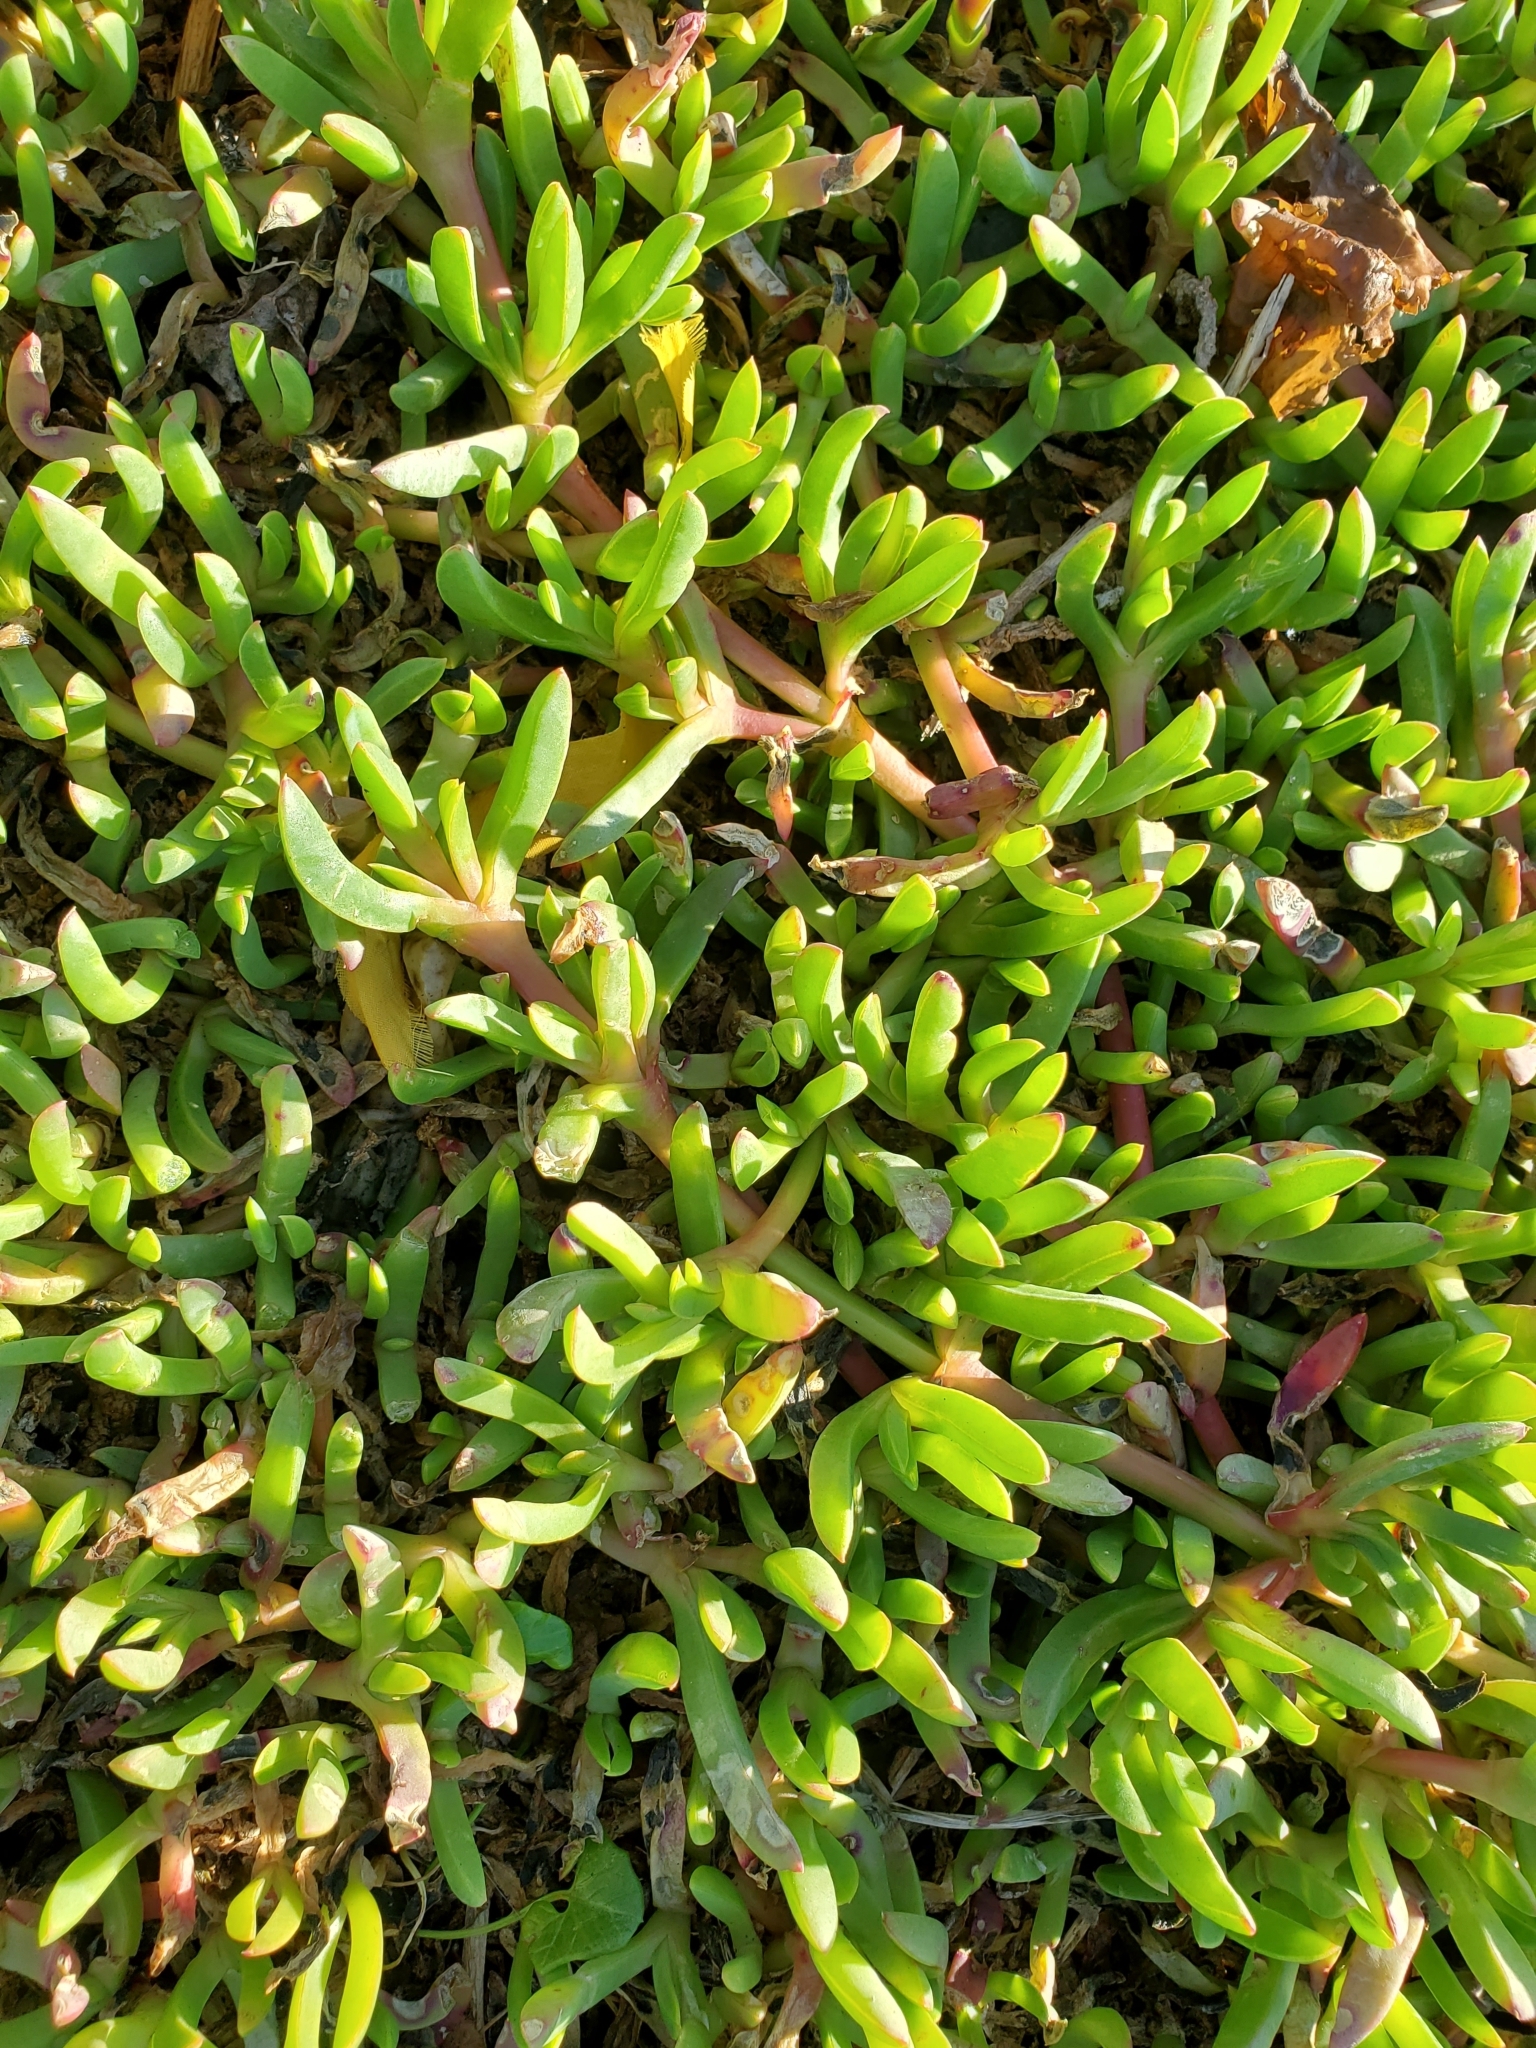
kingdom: Plantae
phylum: Tracheophyta
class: Magnoliopsida
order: Caryophyllales
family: Aizoaceae
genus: Disphyma
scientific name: Disphyma australe
